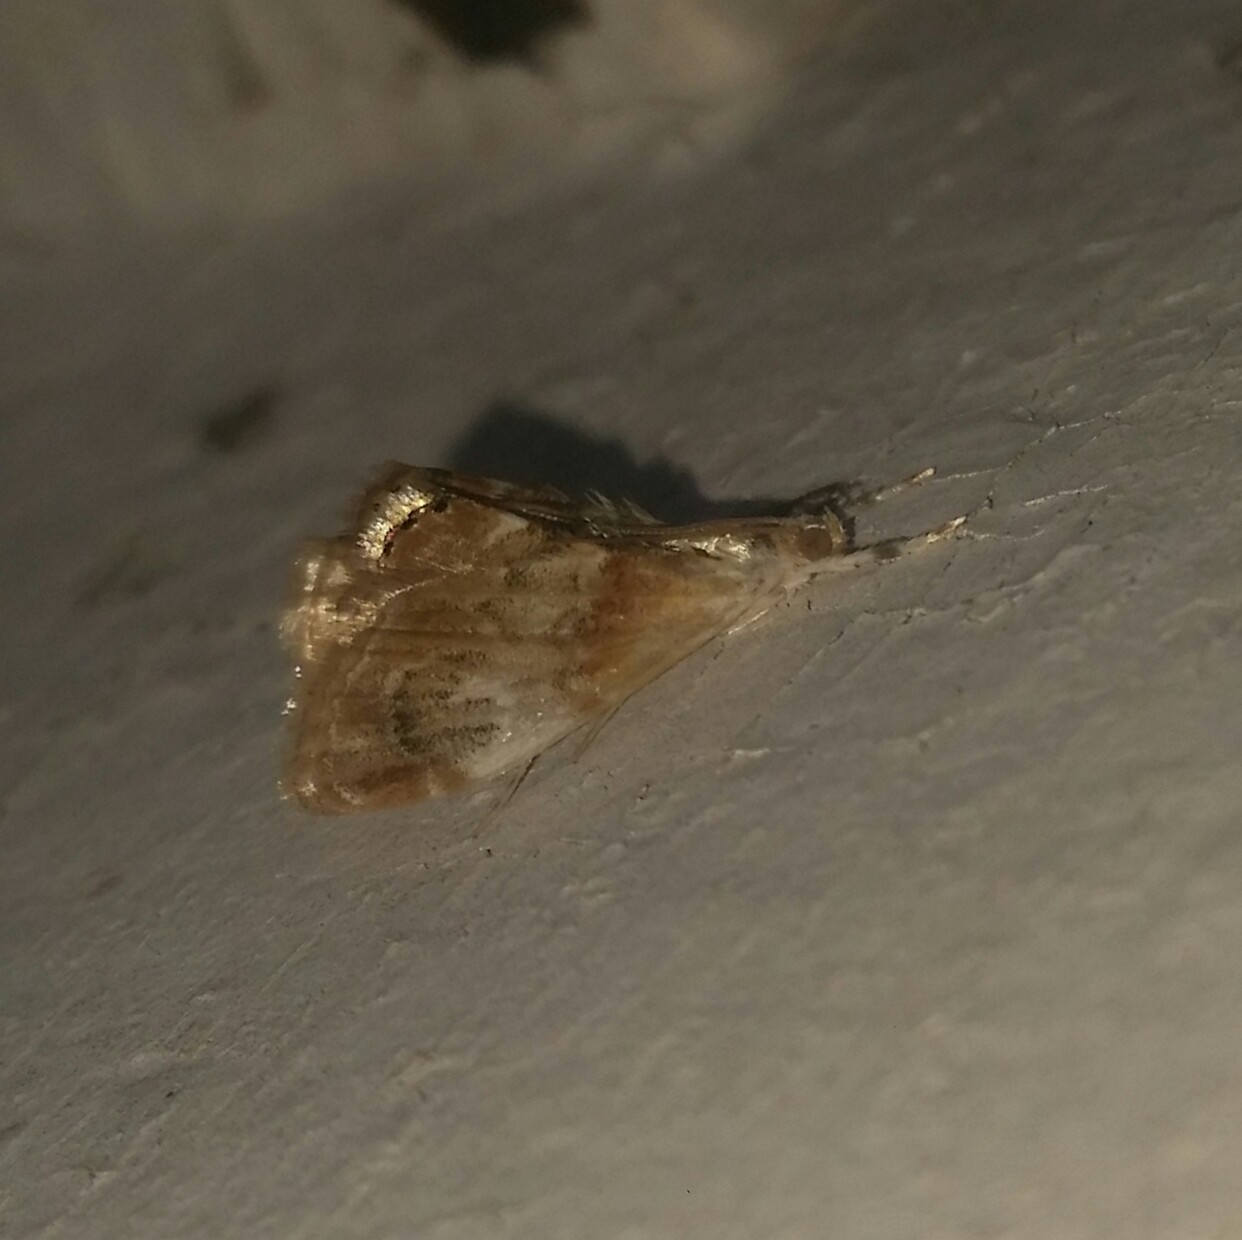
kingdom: Animalia
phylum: Arthropoda
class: Insecta
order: Lepidoptera
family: Crambidae
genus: Dicymolomia
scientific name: Dicymolomia julianalis
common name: Julia's dicymolomia moth
